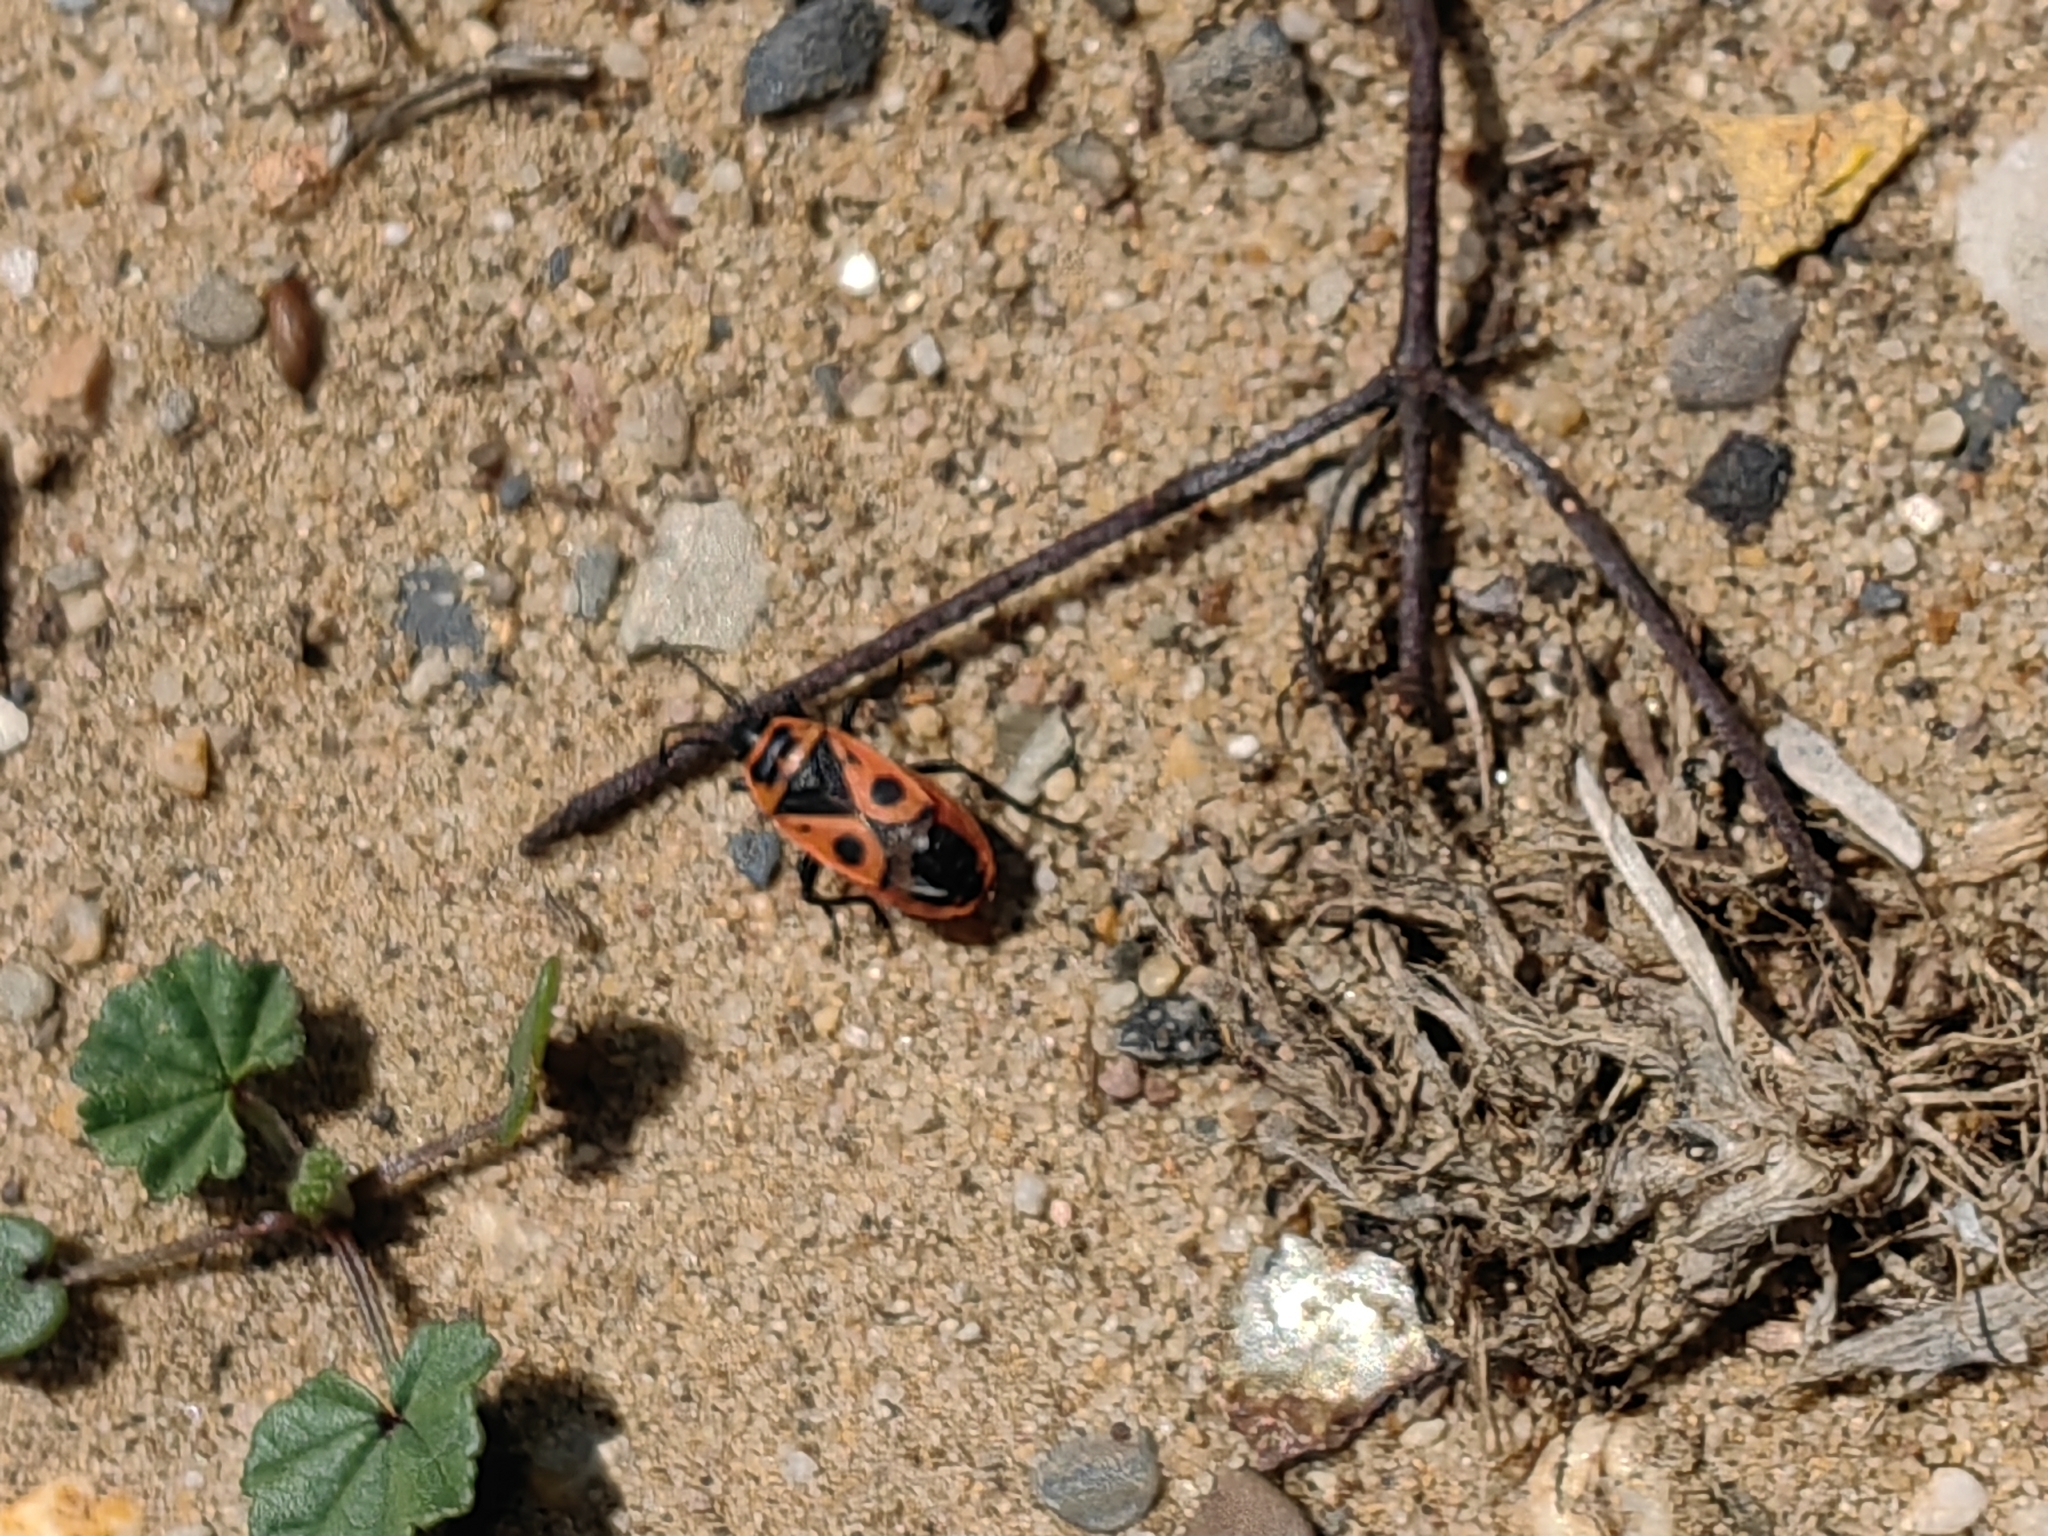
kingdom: Animalia
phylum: Arthropoda
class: Insecta
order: Hemiptera
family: Pyrrhocoridae
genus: Pyrrhocoris
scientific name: Pyrrhocoris apterus
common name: Firebug
